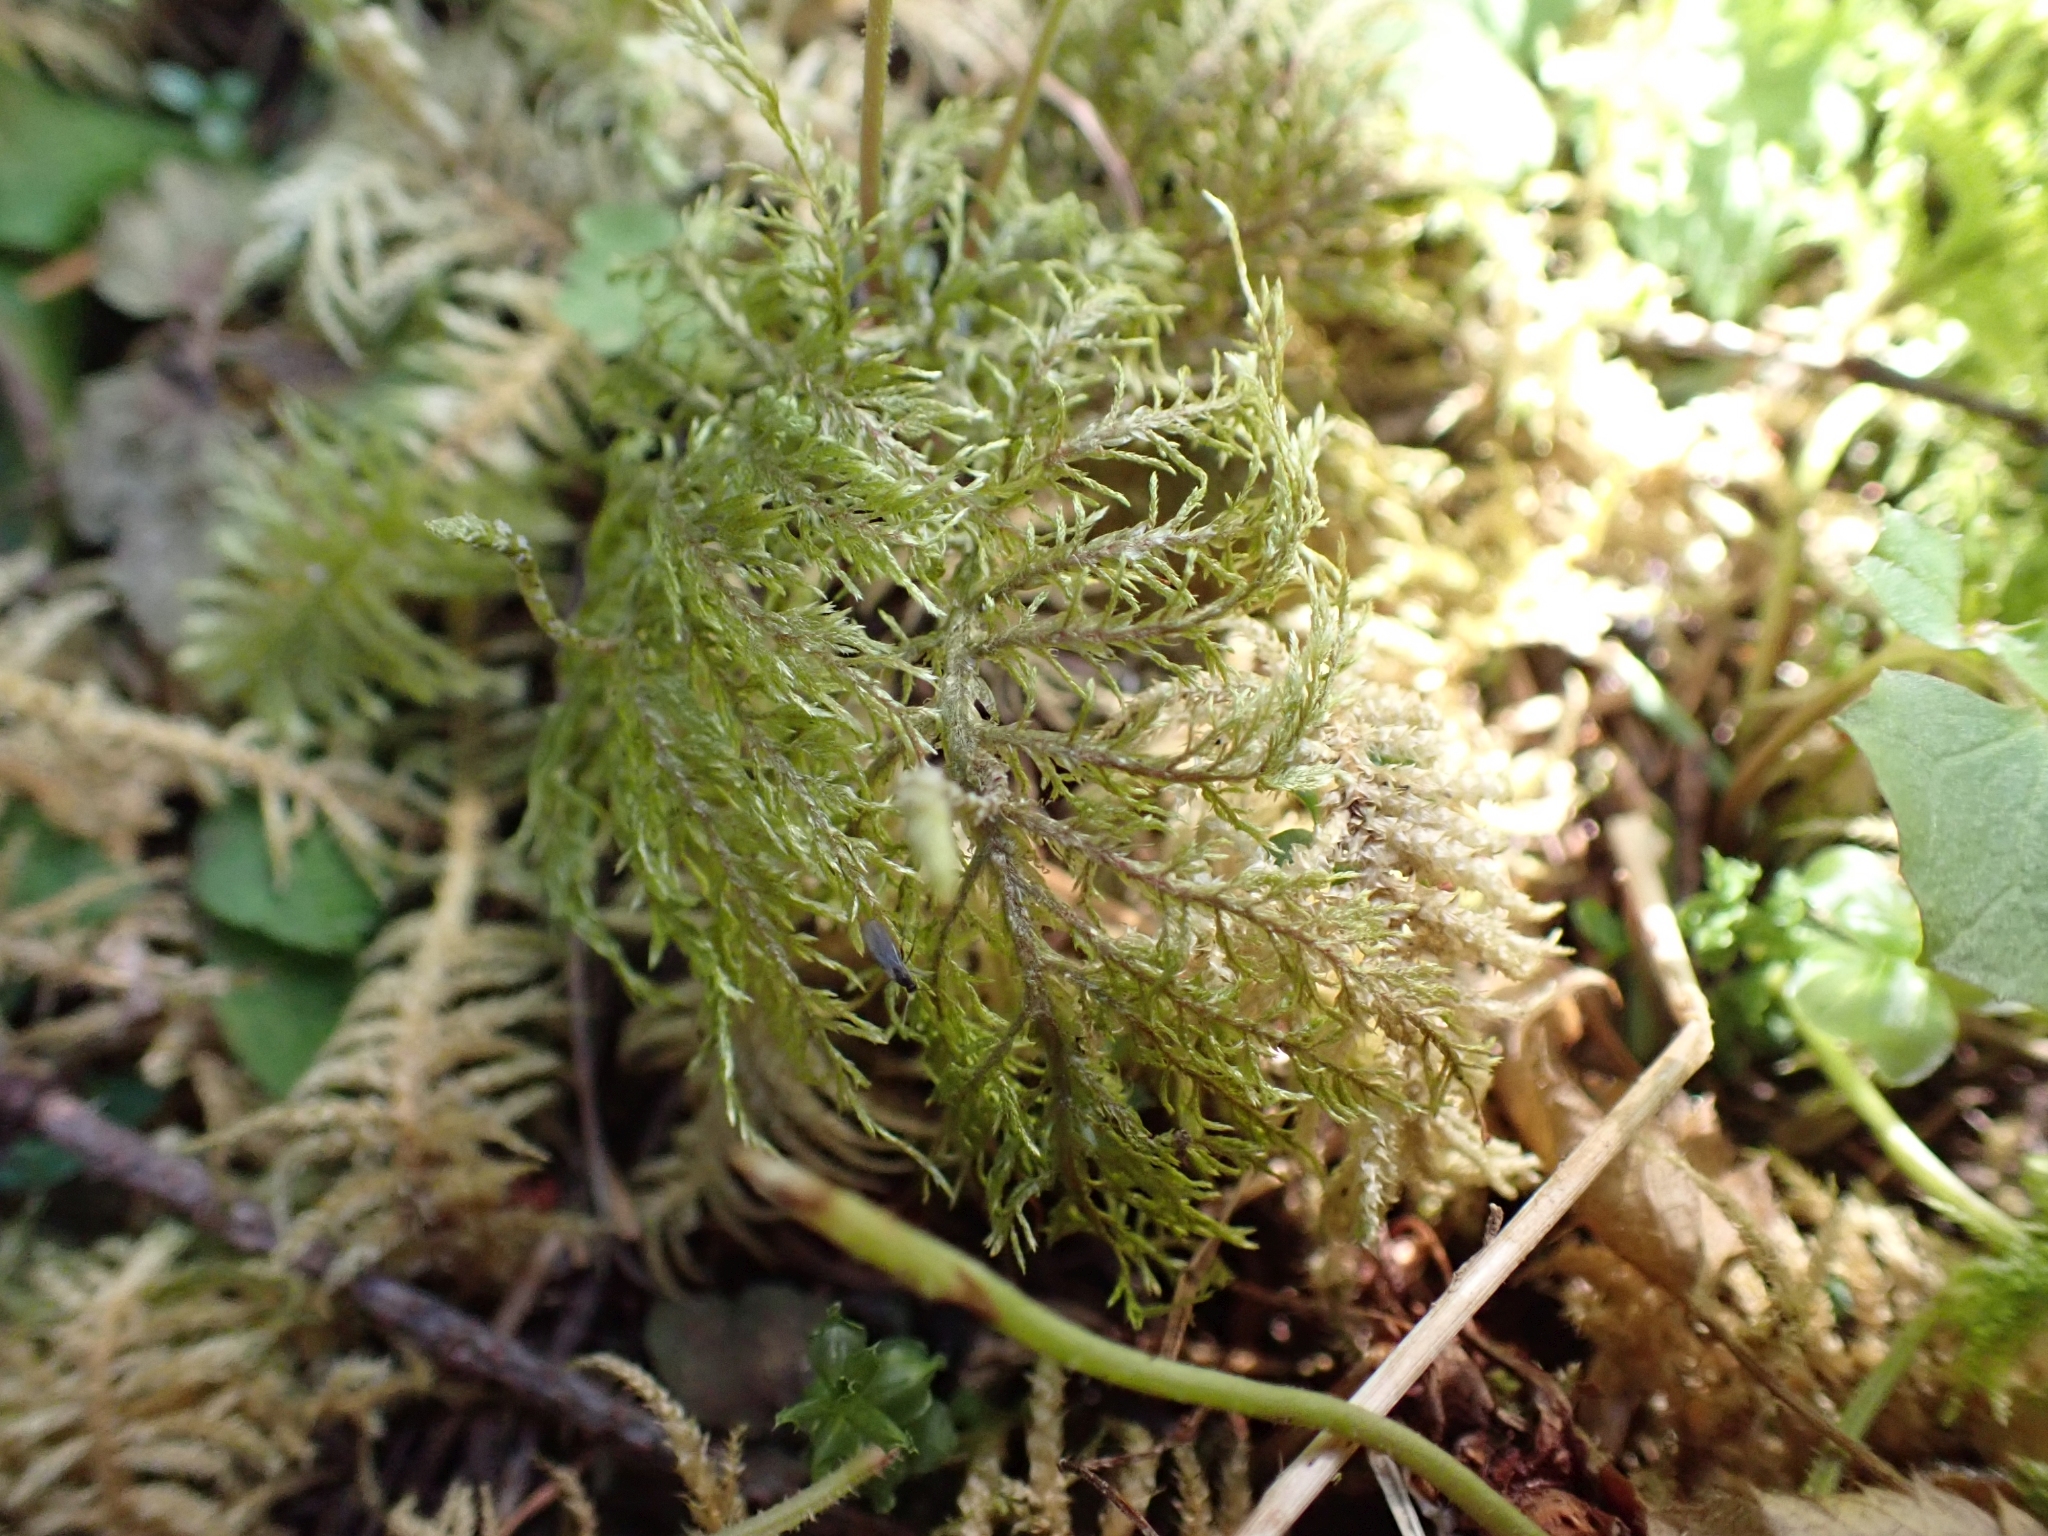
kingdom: Plantae
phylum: Bryophyta
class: Bryopsida
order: Hypnales
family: Hylocomiaceae
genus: Hylocomium
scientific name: Hylocomium splendens
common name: Stairstep moss
